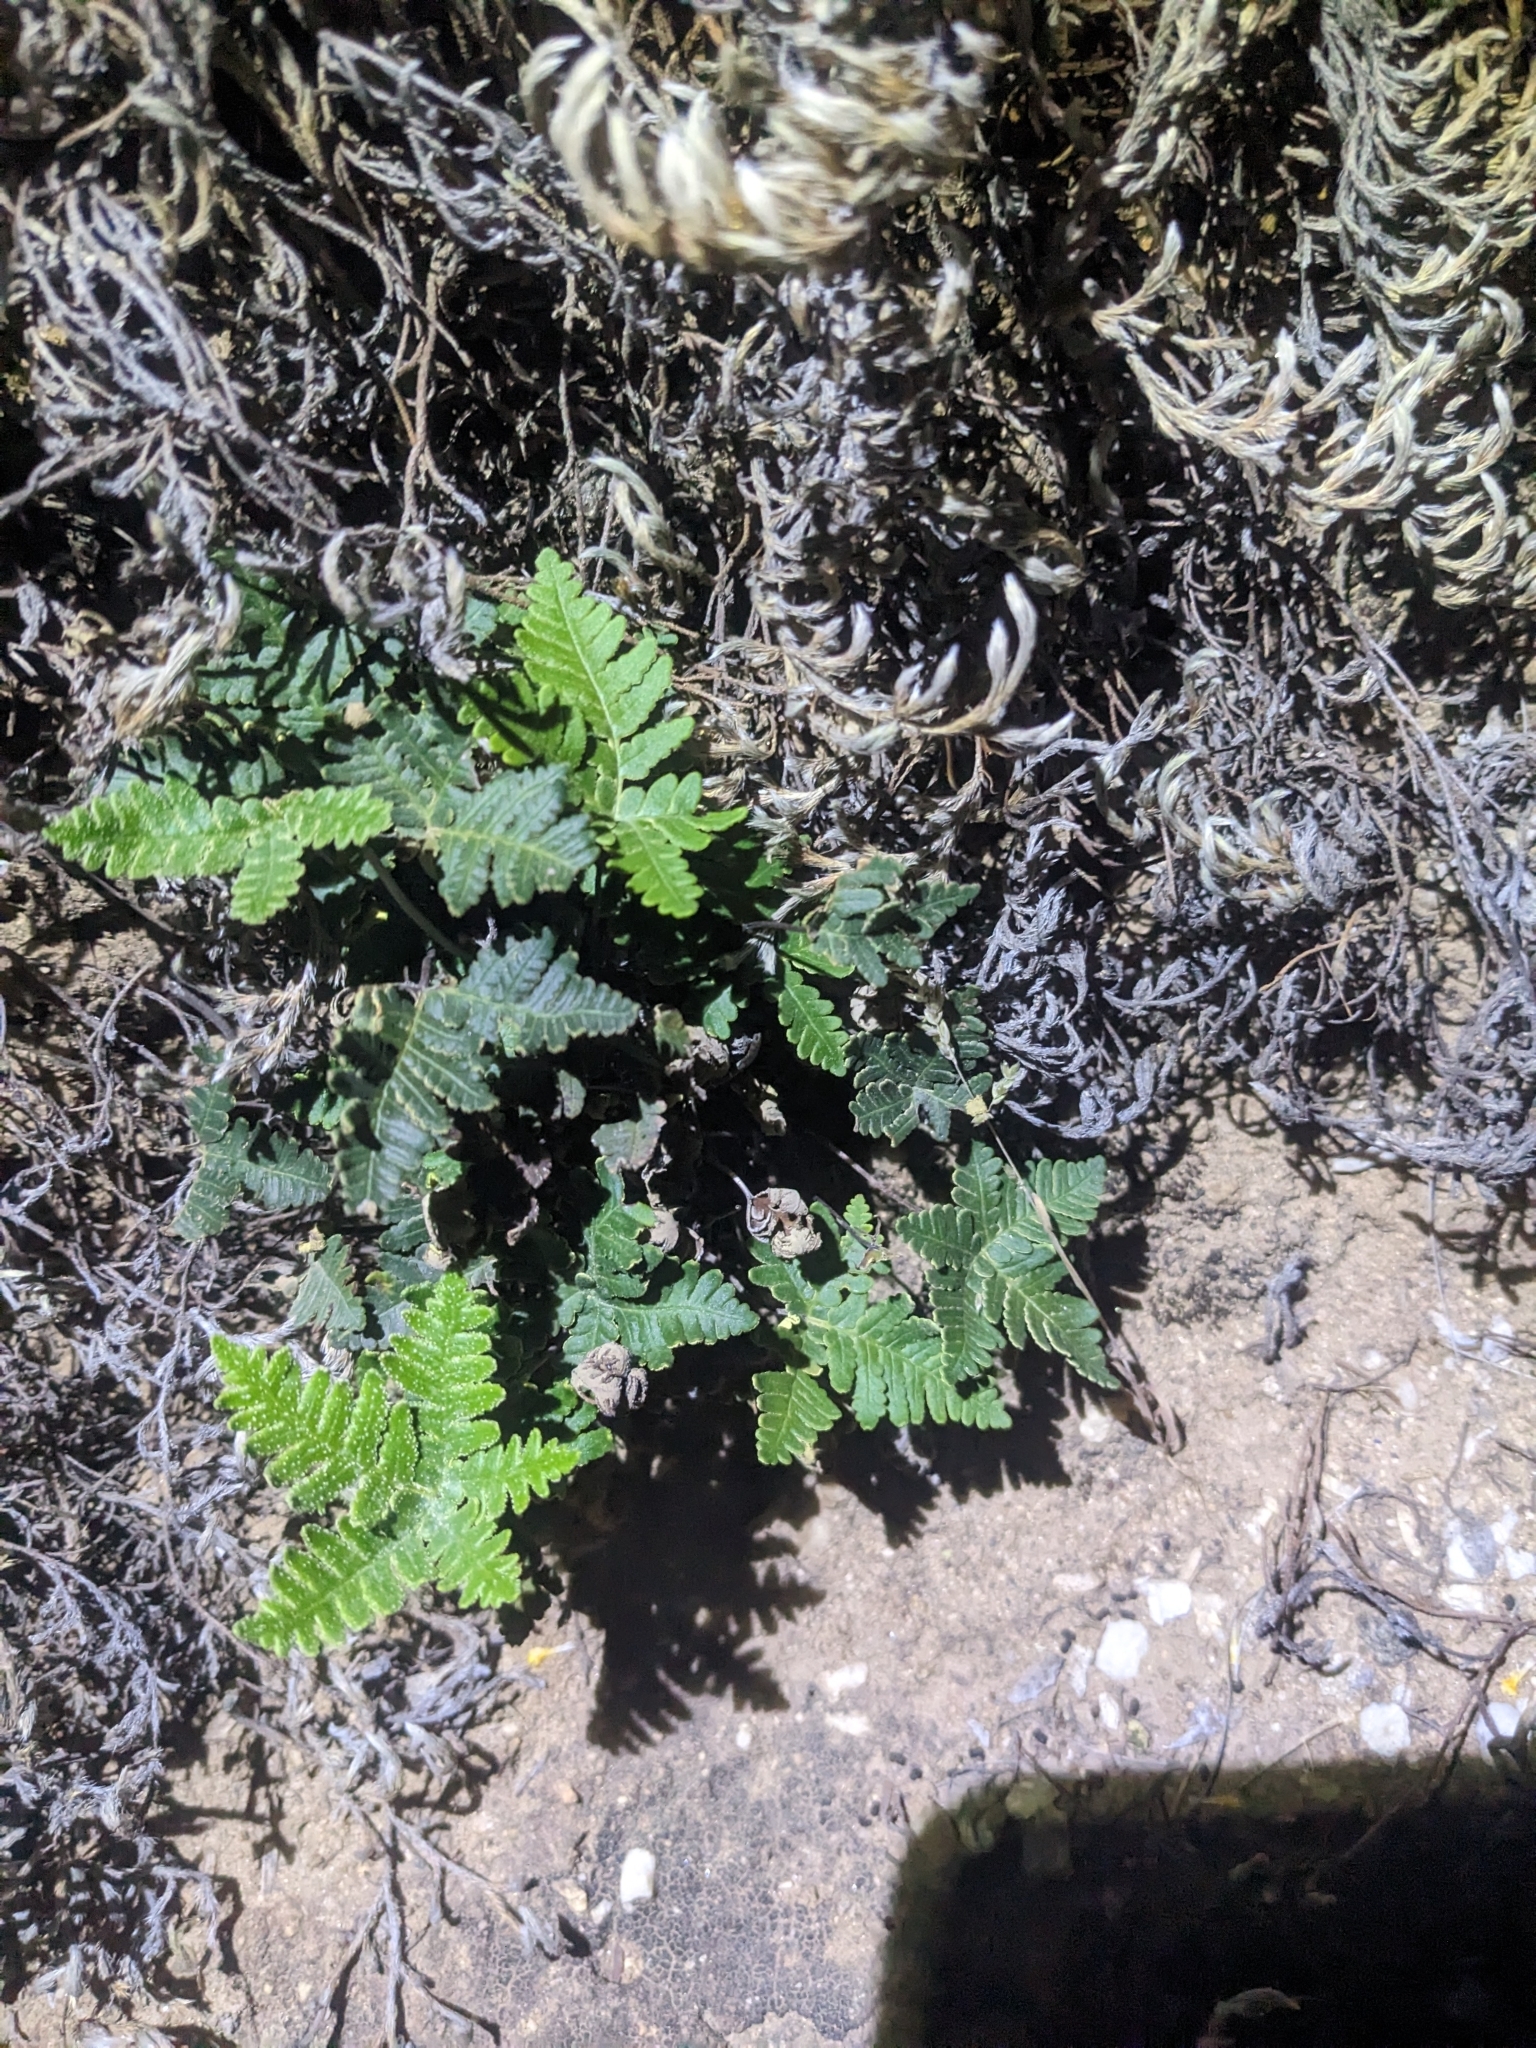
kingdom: Plantae
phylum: Tracheophyta
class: Polypodiopsida
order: Polypodiales
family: Pteridaceae
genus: Notholaena
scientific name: Notholaena standleyi
